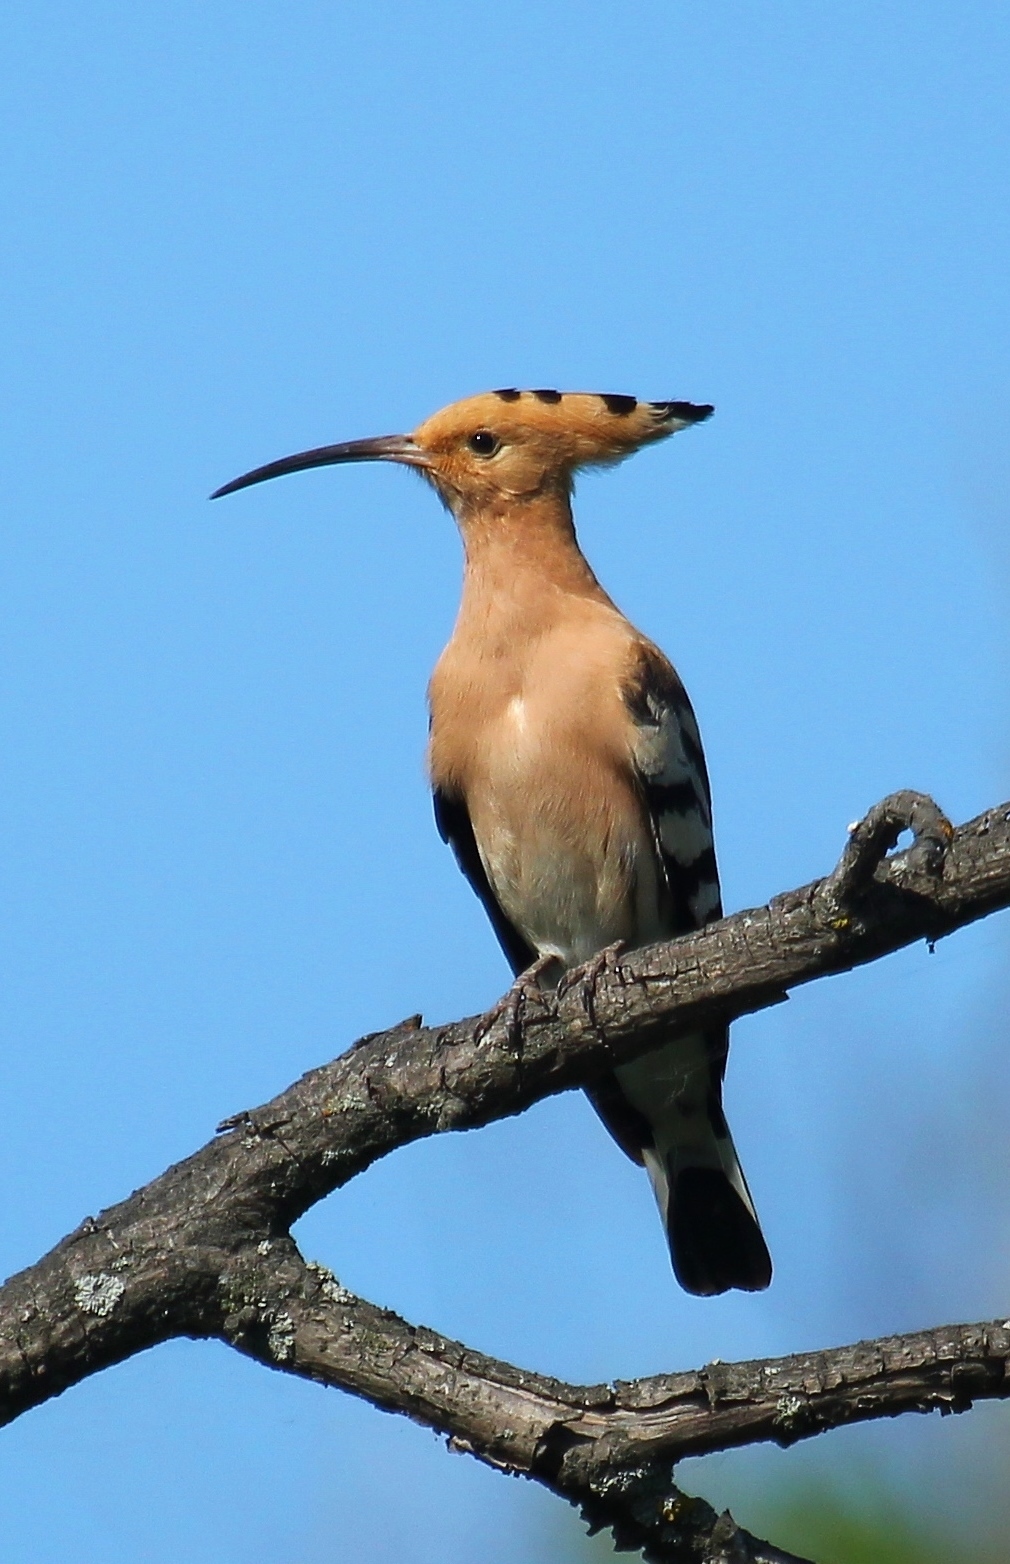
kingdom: Animalia
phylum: Chordata
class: Aves
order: Bucerotiformes
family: Upupidae
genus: Upupa
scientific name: Upupa epops
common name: Eurasian hoopoe
